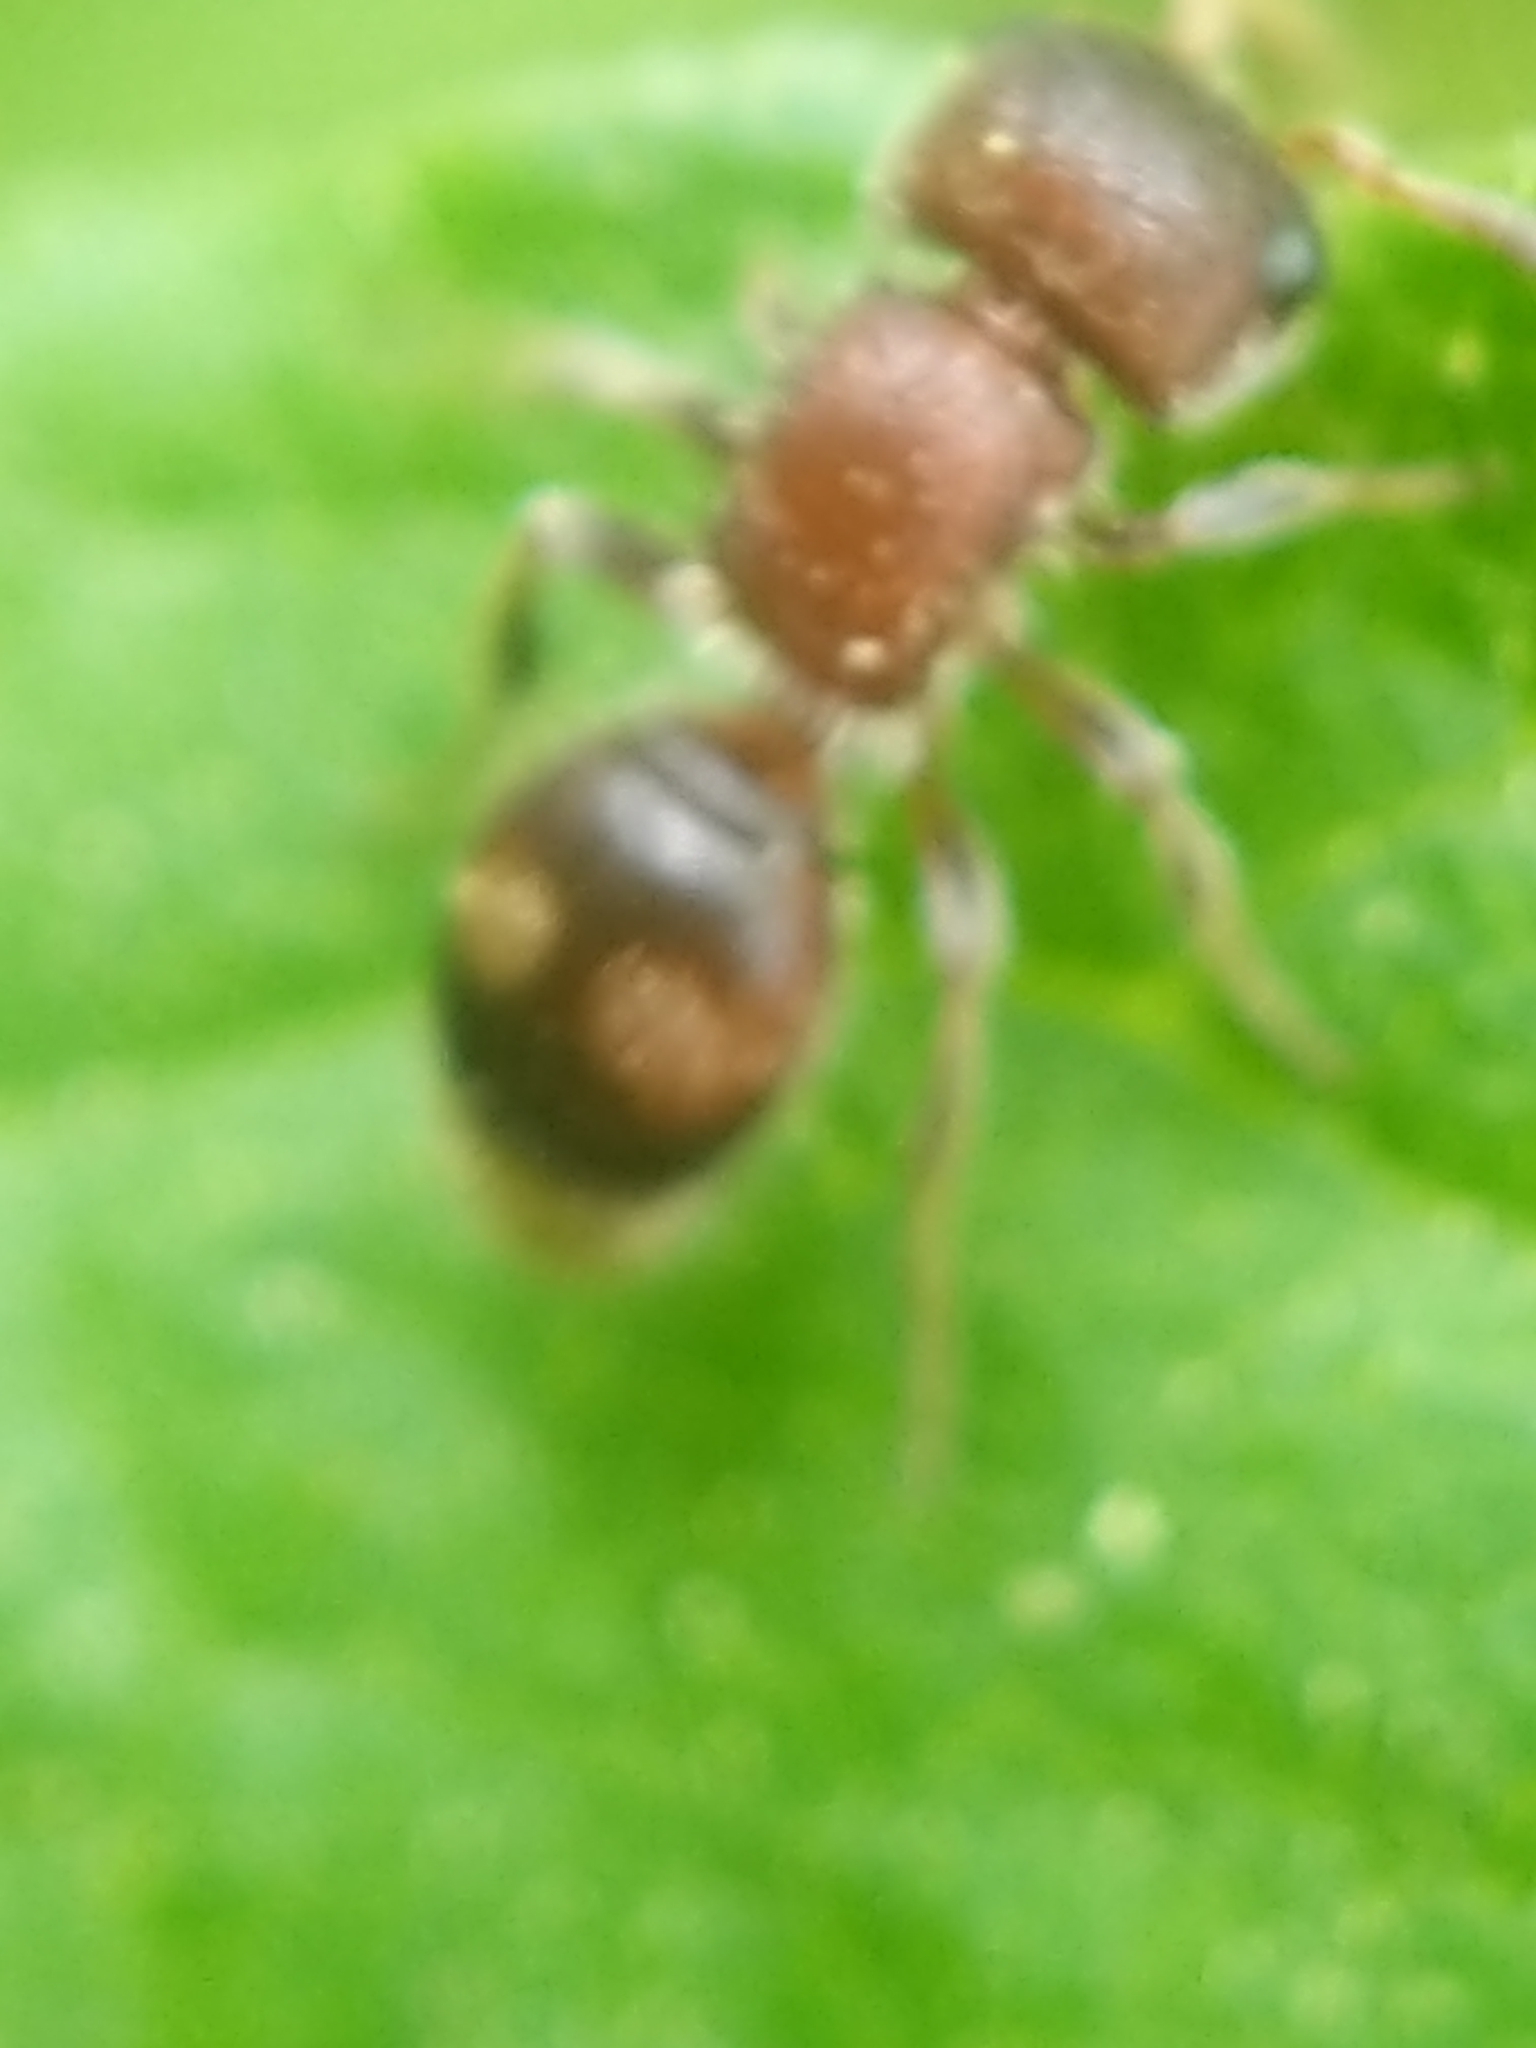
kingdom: Animalia
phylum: Arthropoda
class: Insecta
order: Hymenoptera
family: Mutillidae
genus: Pseudomethoca
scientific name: Pseudomethoca
